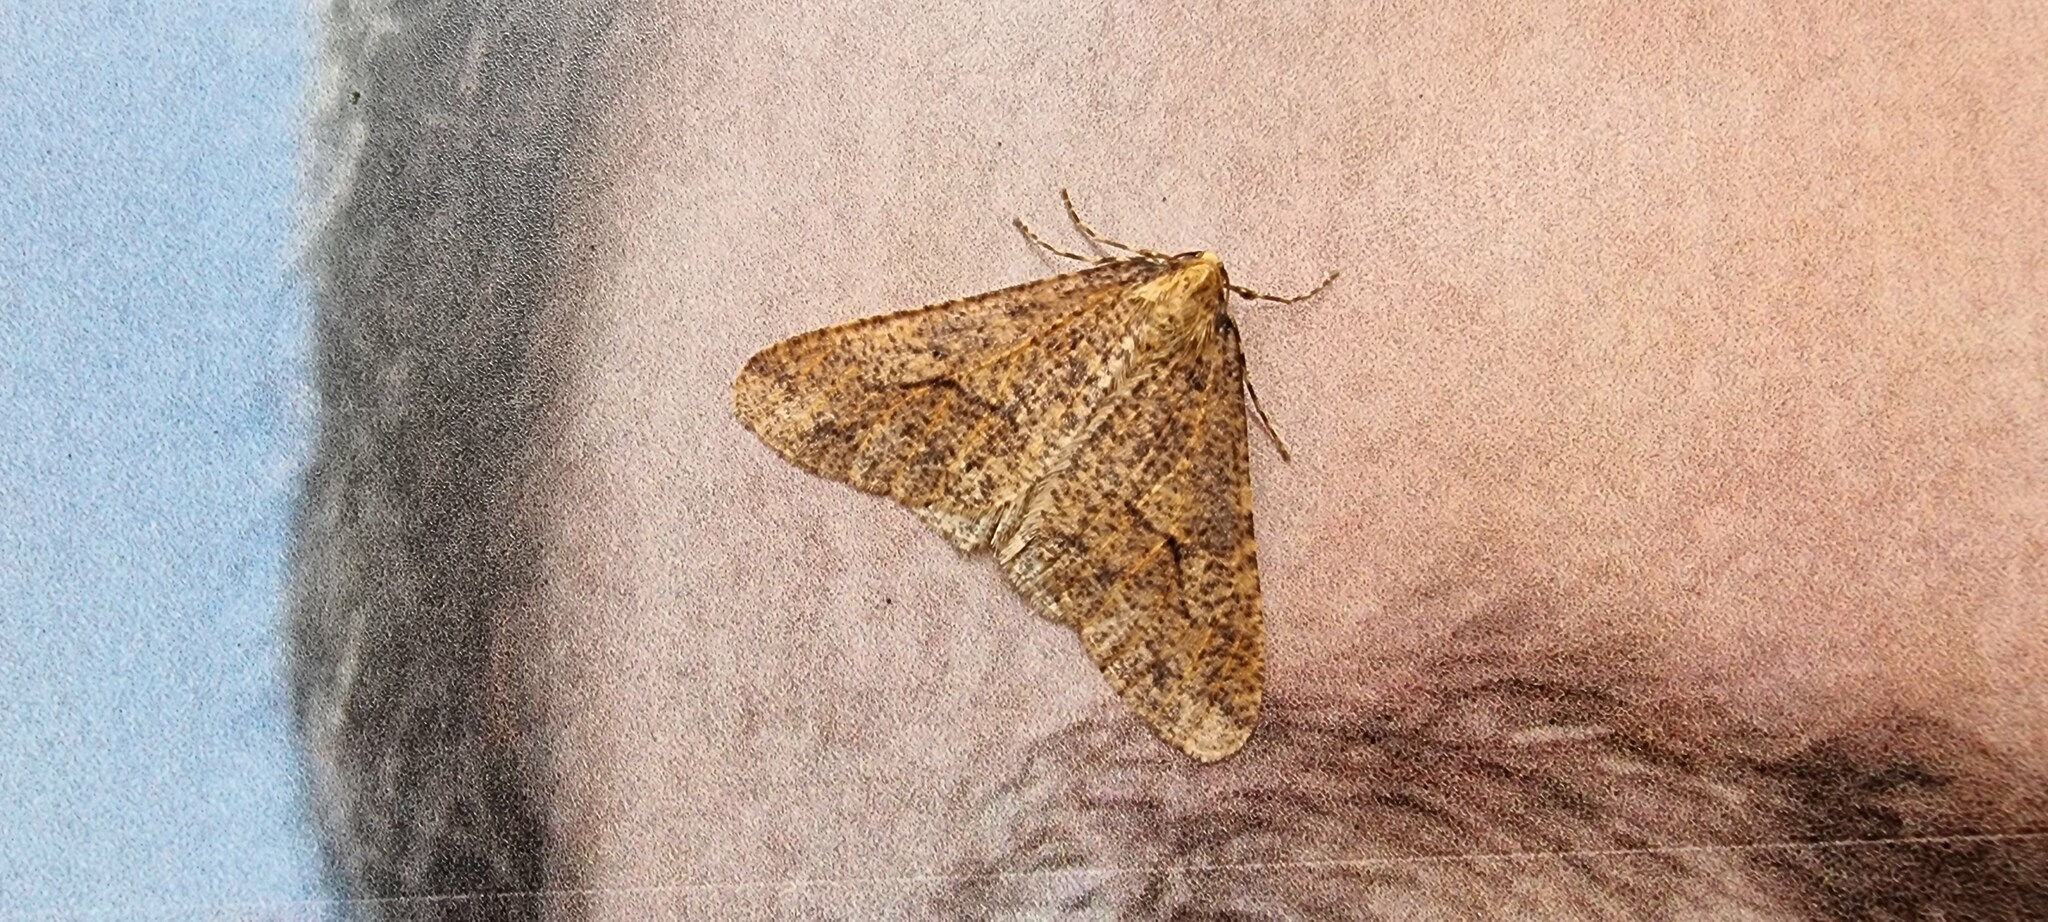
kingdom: Animalia
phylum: Arthropoda
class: Insecta
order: Lepidoptera
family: Geometridae
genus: Erannis
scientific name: Erannis defoliaria
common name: Mottled umber
